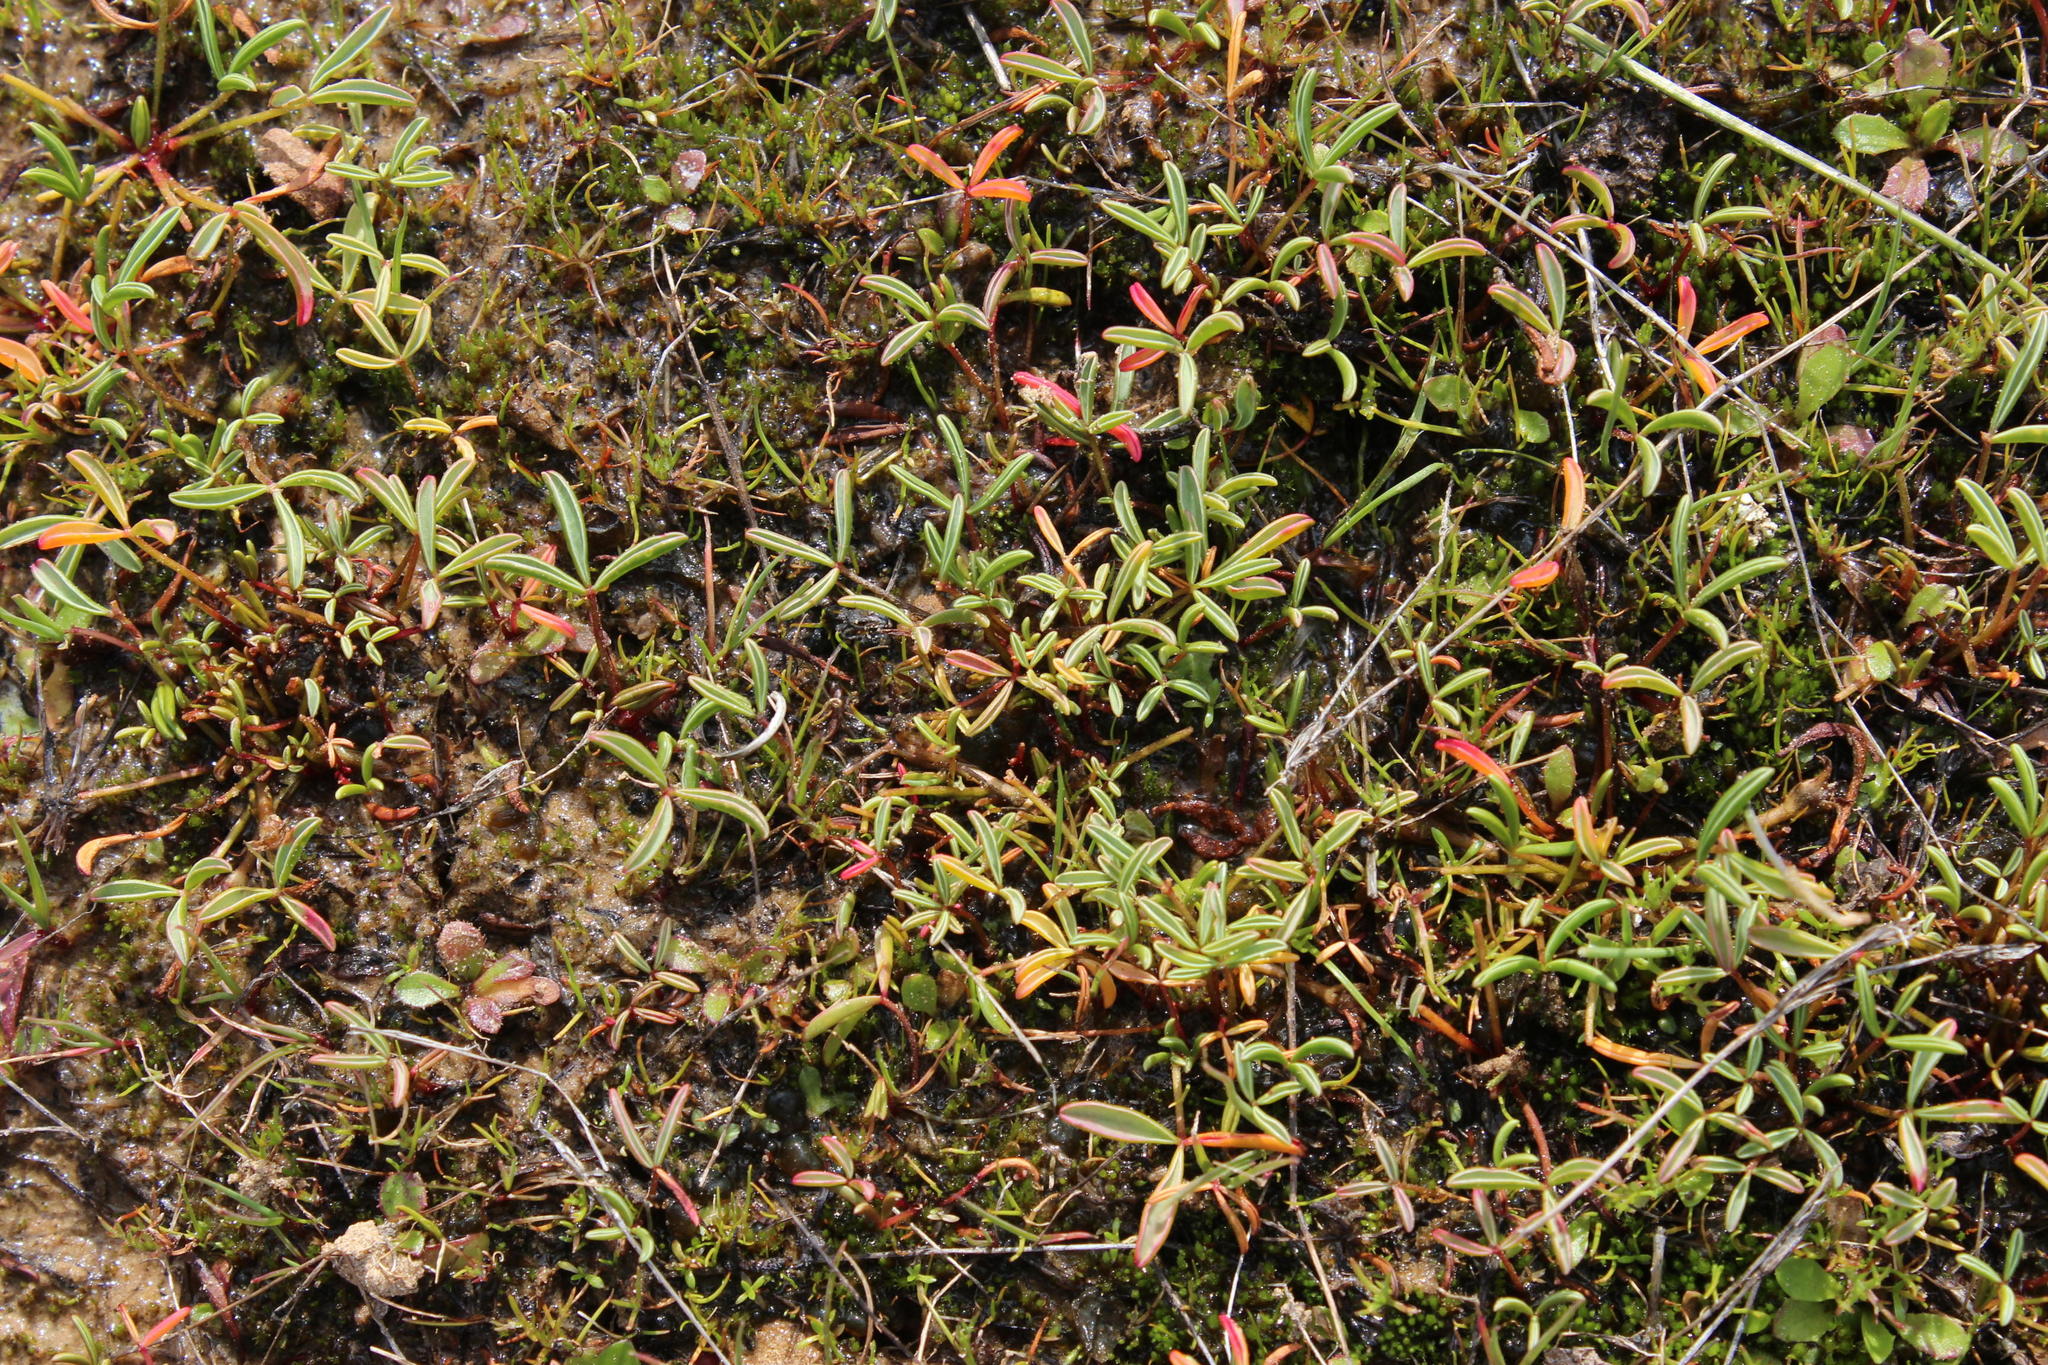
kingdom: Plantae
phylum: Tracheophyta
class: Magnoliopsida
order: Oxalidales
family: Oxalidaceae
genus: Oxalis
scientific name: Oxalis odorata
